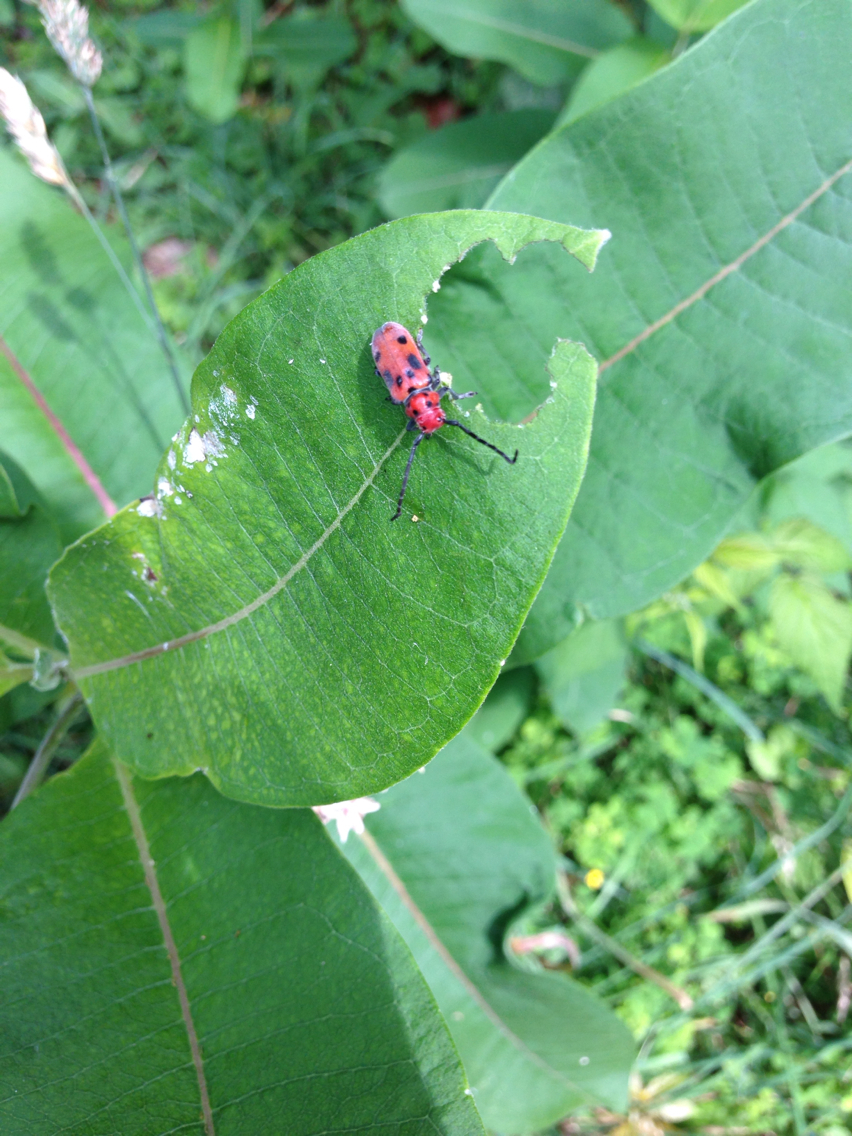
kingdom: Animalia
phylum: Arthropoda
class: Insecta
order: Coleoptera
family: Cerambycidae
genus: Tetraopes
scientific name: Tetraopes tetrophthalmus
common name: Red milkweed beetle
